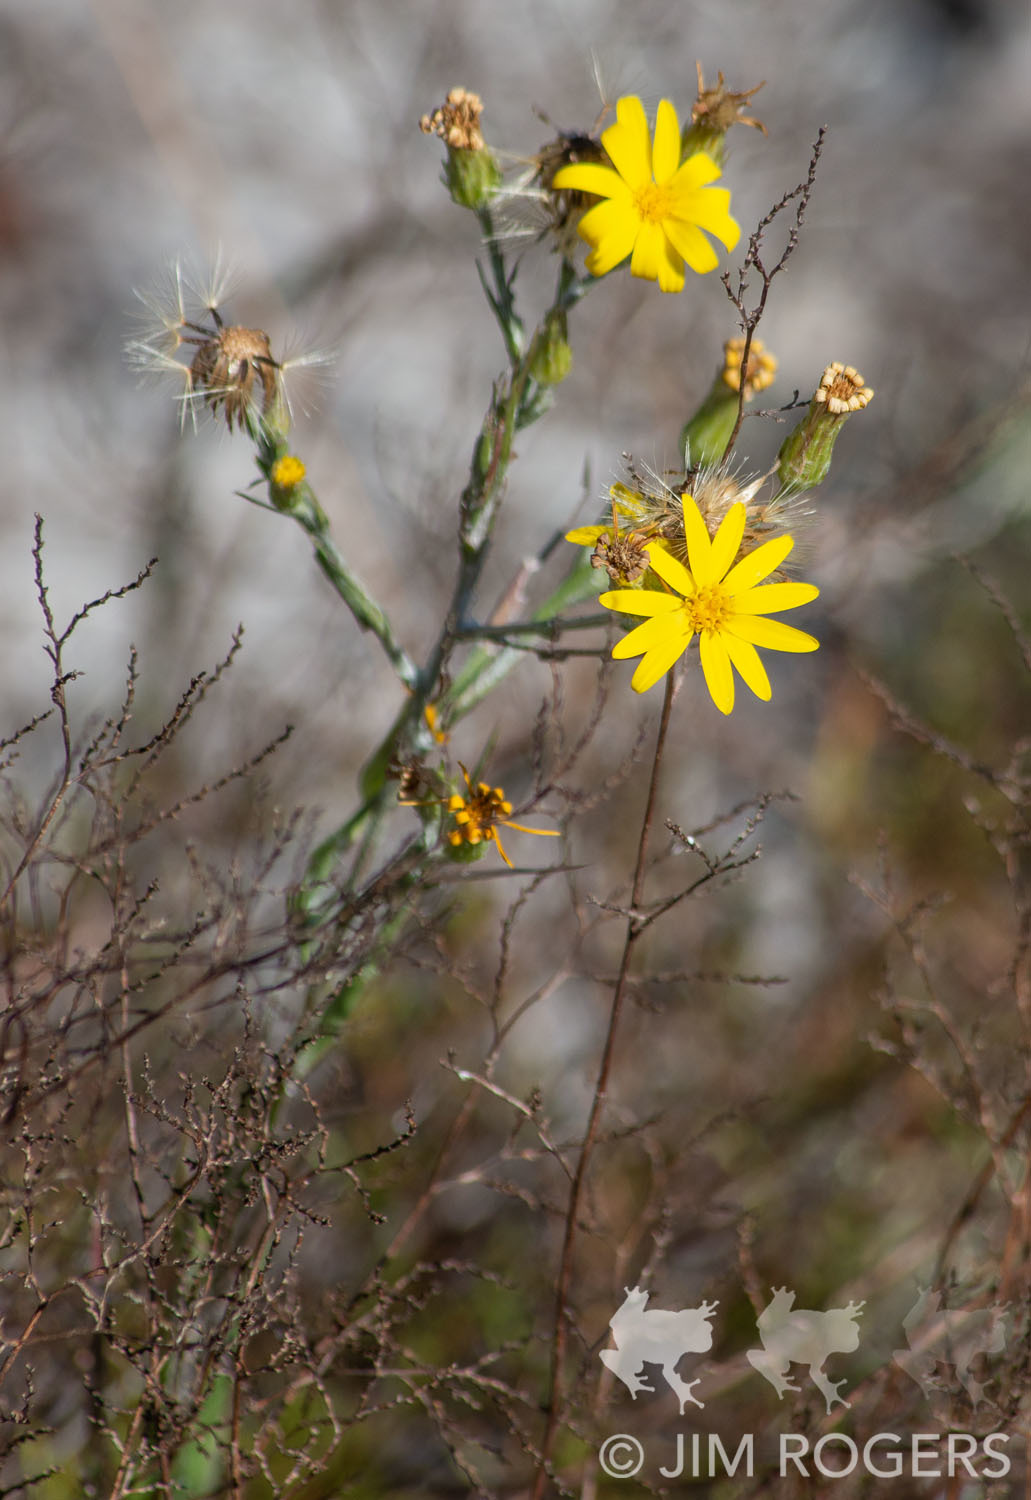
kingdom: Plantae
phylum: Tracheophyta
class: Magnoliopsida
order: Asterales
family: Asteraceae
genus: Pityopsis
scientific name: Pityopsis graminifolia
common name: Grass-leaf golden-aster
